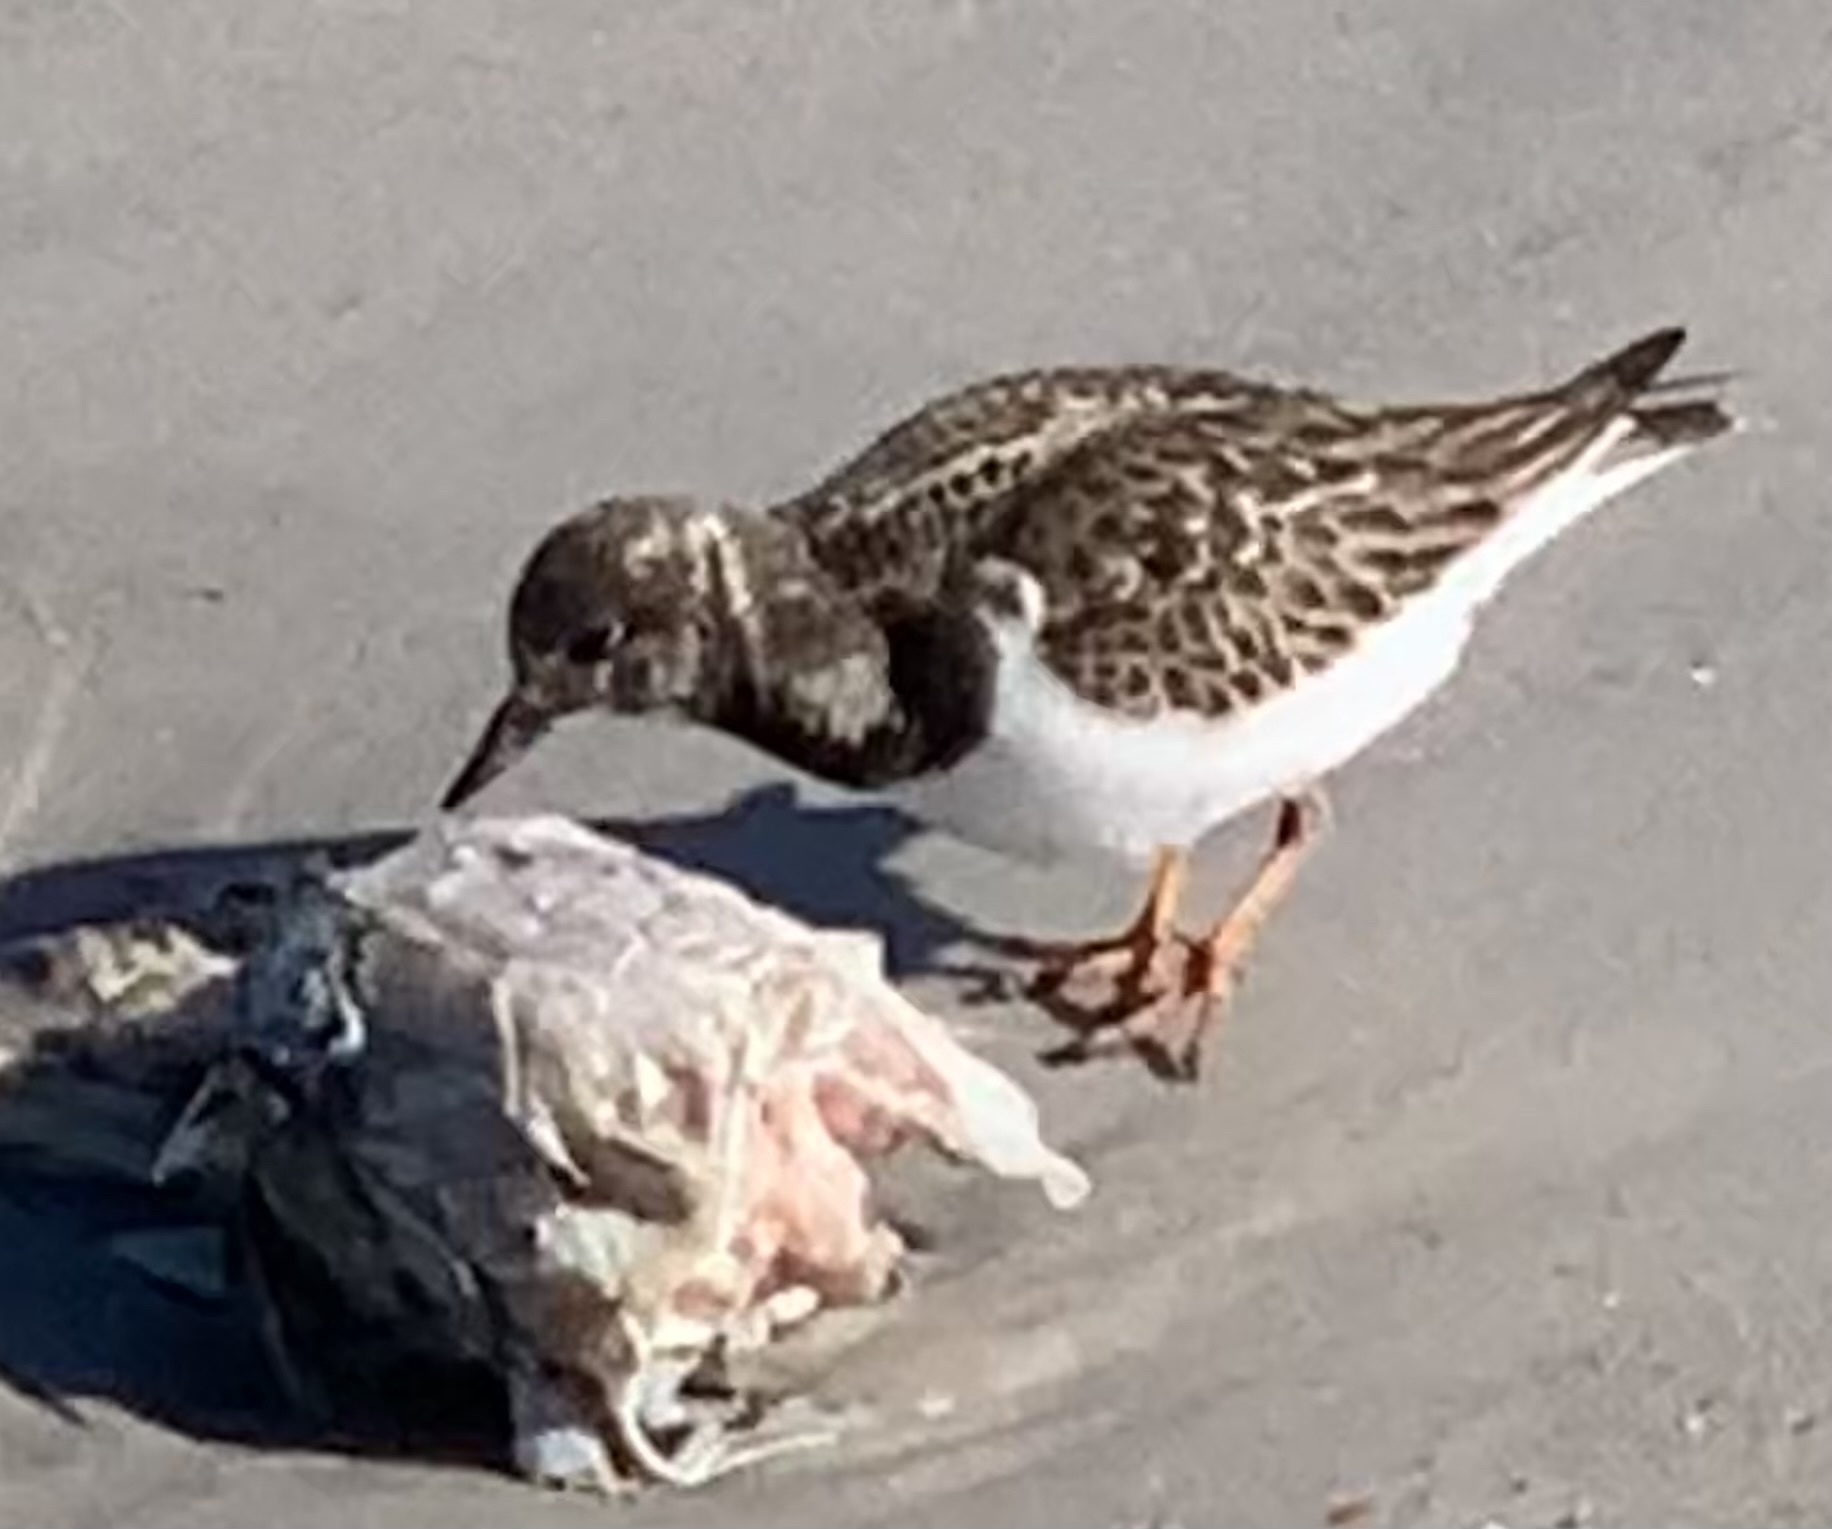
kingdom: Animalia
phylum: Chordata
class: Aves
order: Charadriiformes
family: Scolopacidae
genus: Arenaria
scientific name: Arenaria interpres
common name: Ruddy turnstone
